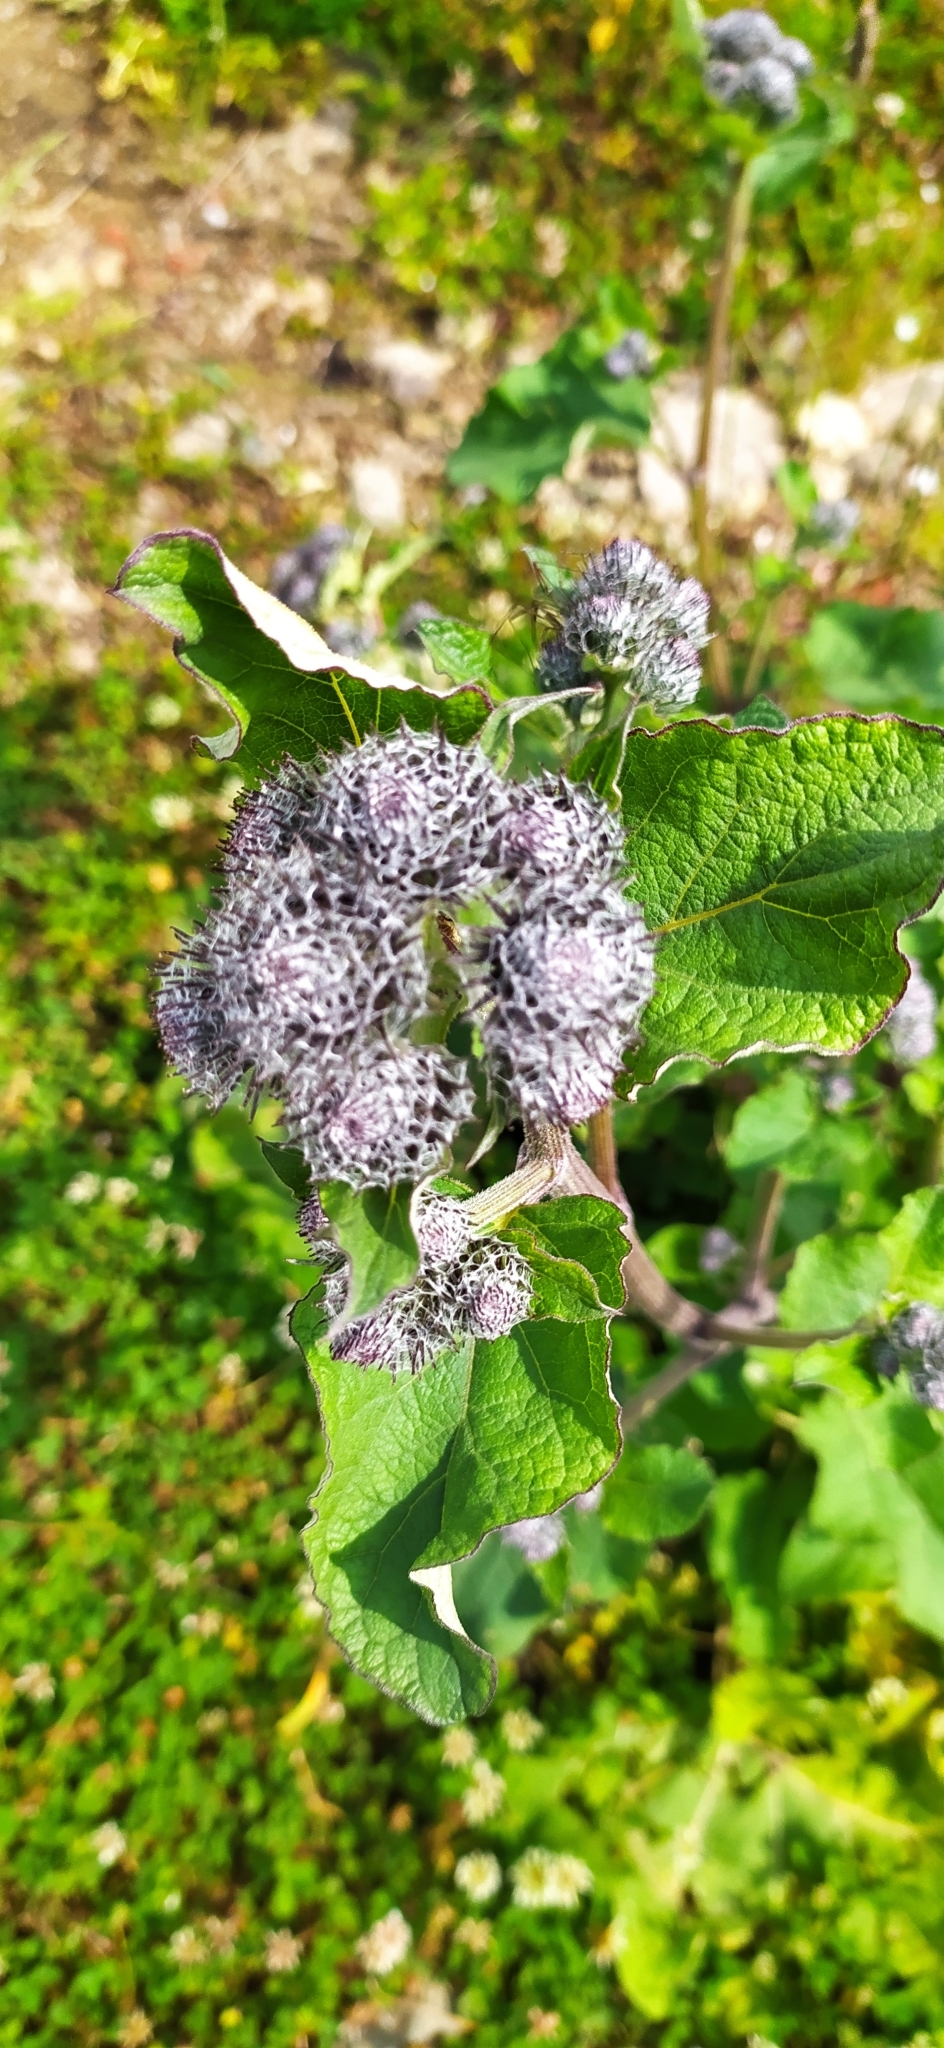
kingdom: Plantae
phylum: Tracheophyta
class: Magnoliopsida
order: Asterales
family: Asteraceae
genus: Arctium
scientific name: Arctium tomentosum
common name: Woolly burdock
